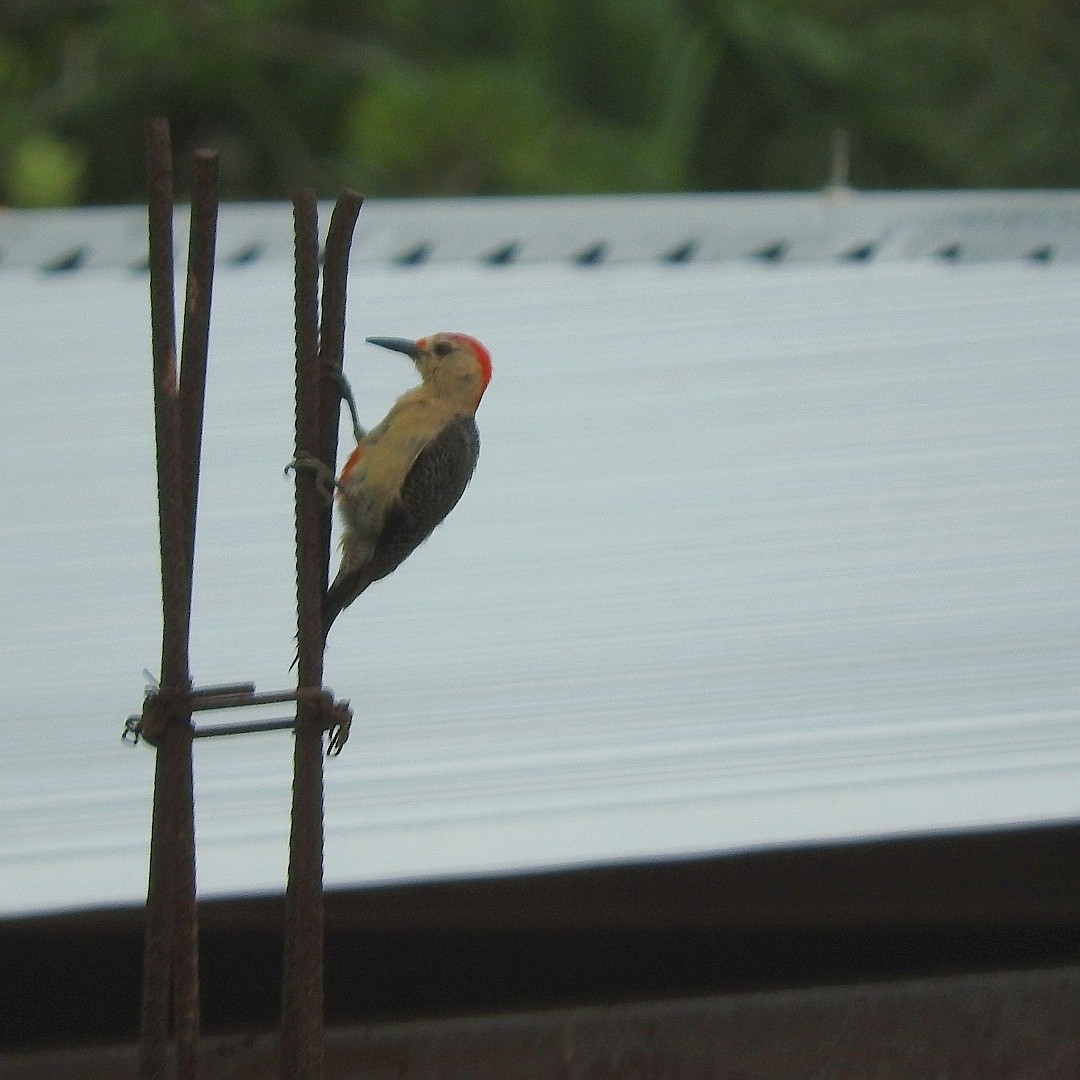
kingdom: Animalia
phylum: Chordata
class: Aves
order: Piciformes
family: Picidae
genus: Melanerpes
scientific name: Melanerpes aurifrons
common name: Golden-fronted woodpecker
